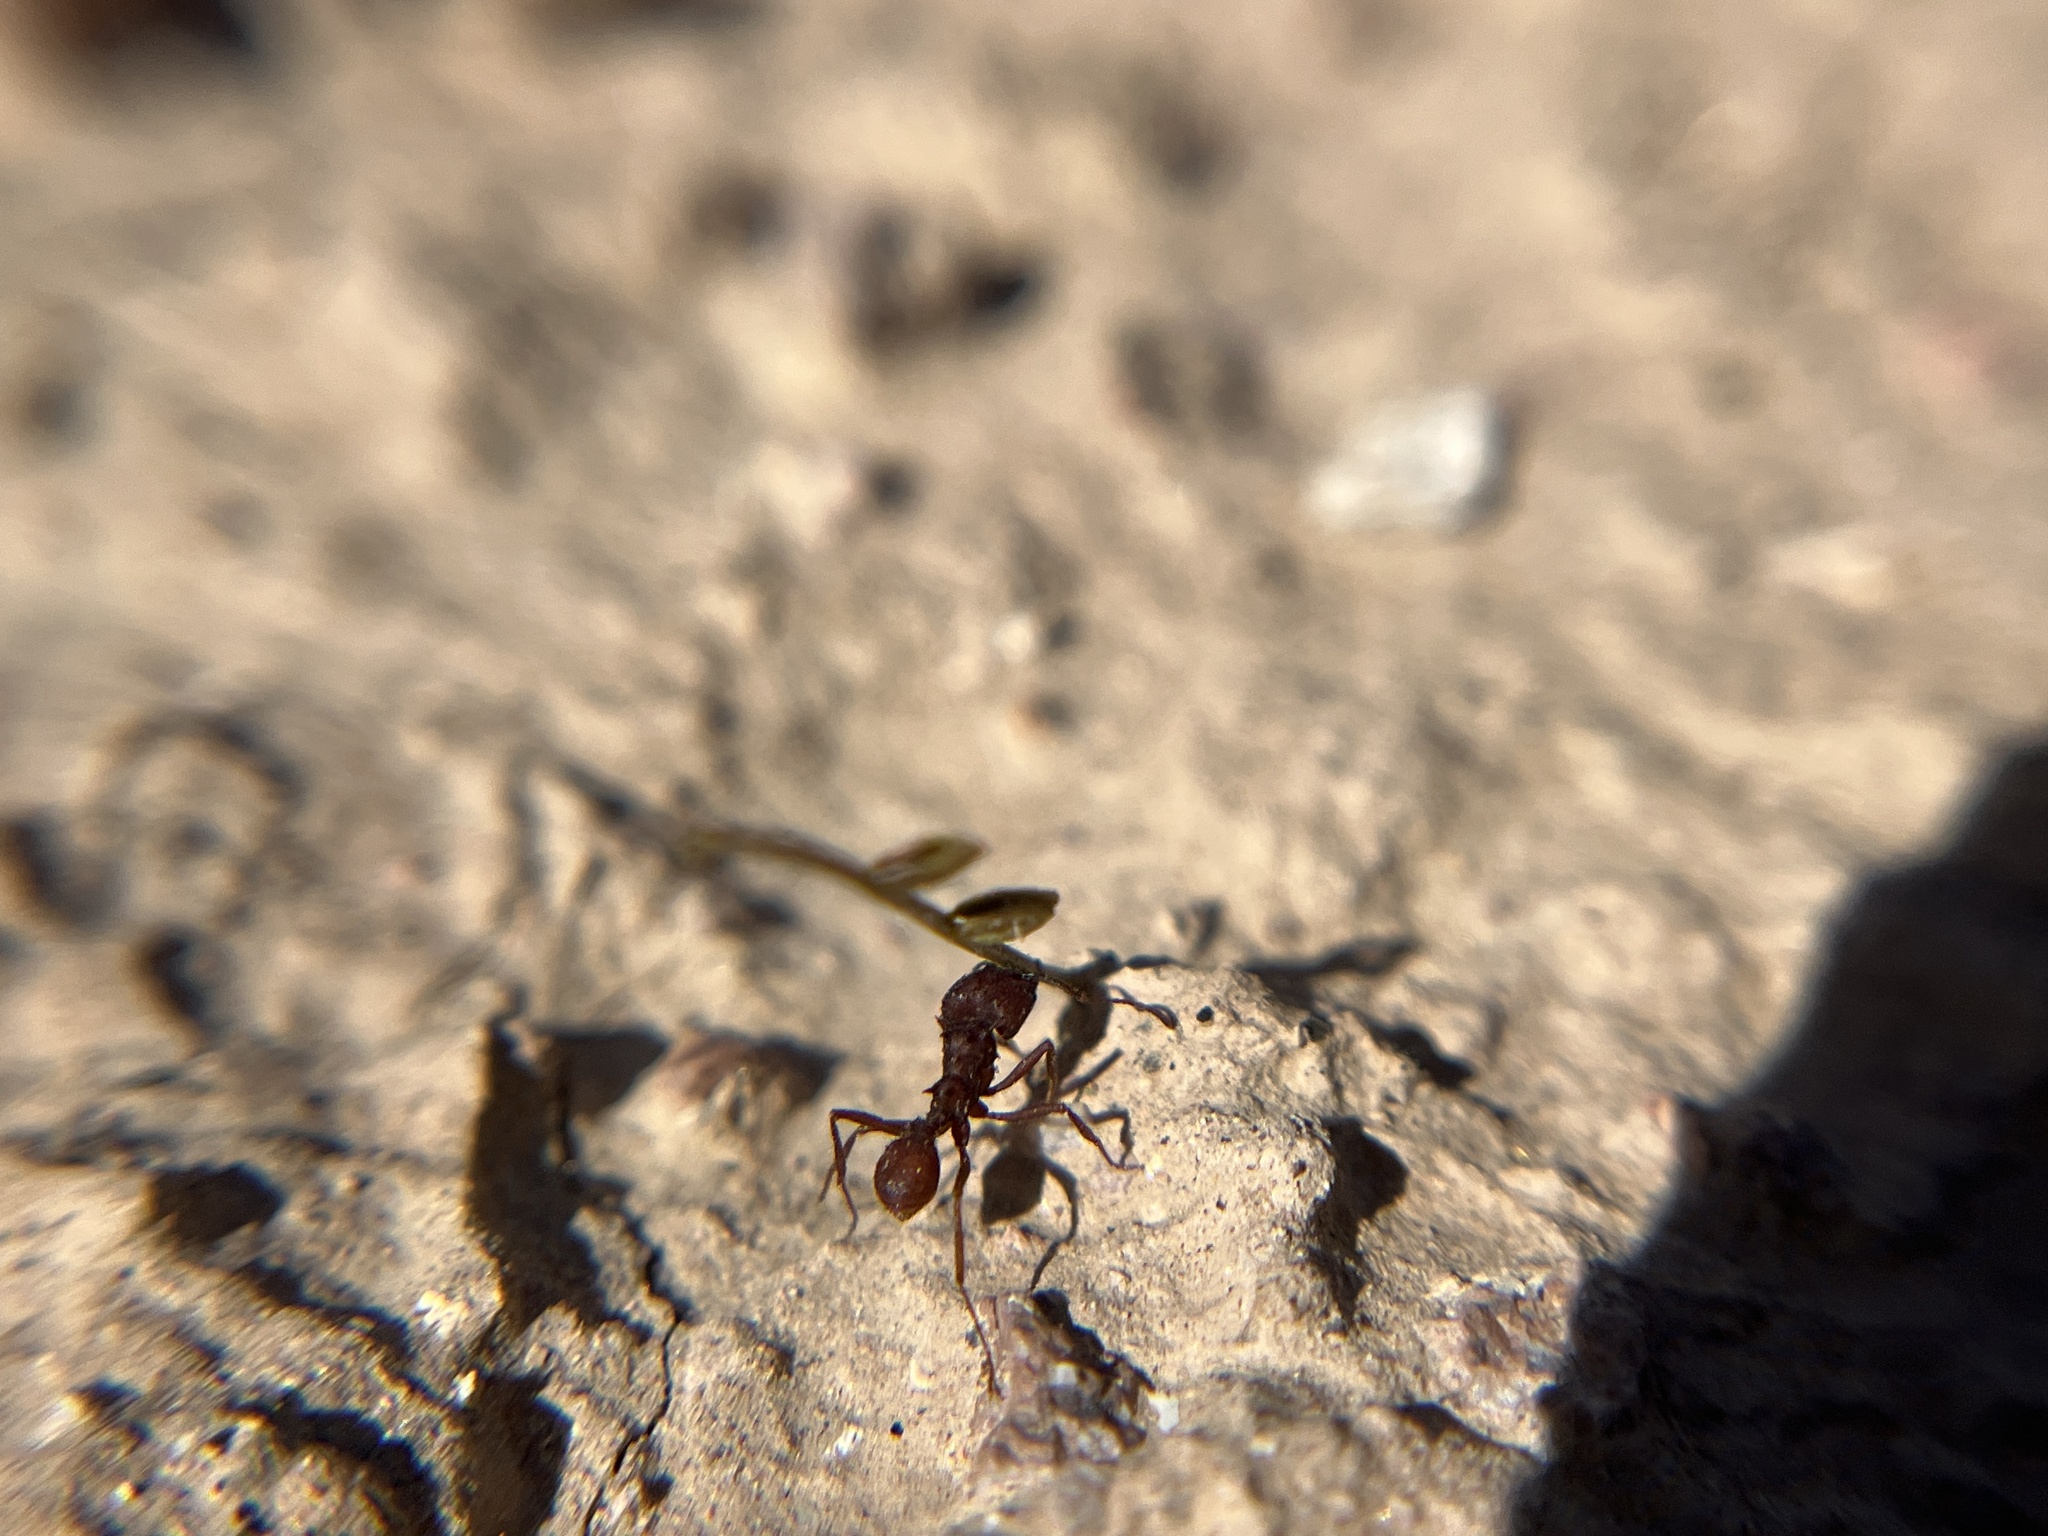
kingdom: Animalia
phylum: Arthropoda
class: Insecta
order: Hymenoptera
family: Formicidae
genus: Acromyrmex
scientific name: Acromyrmex versicolor
